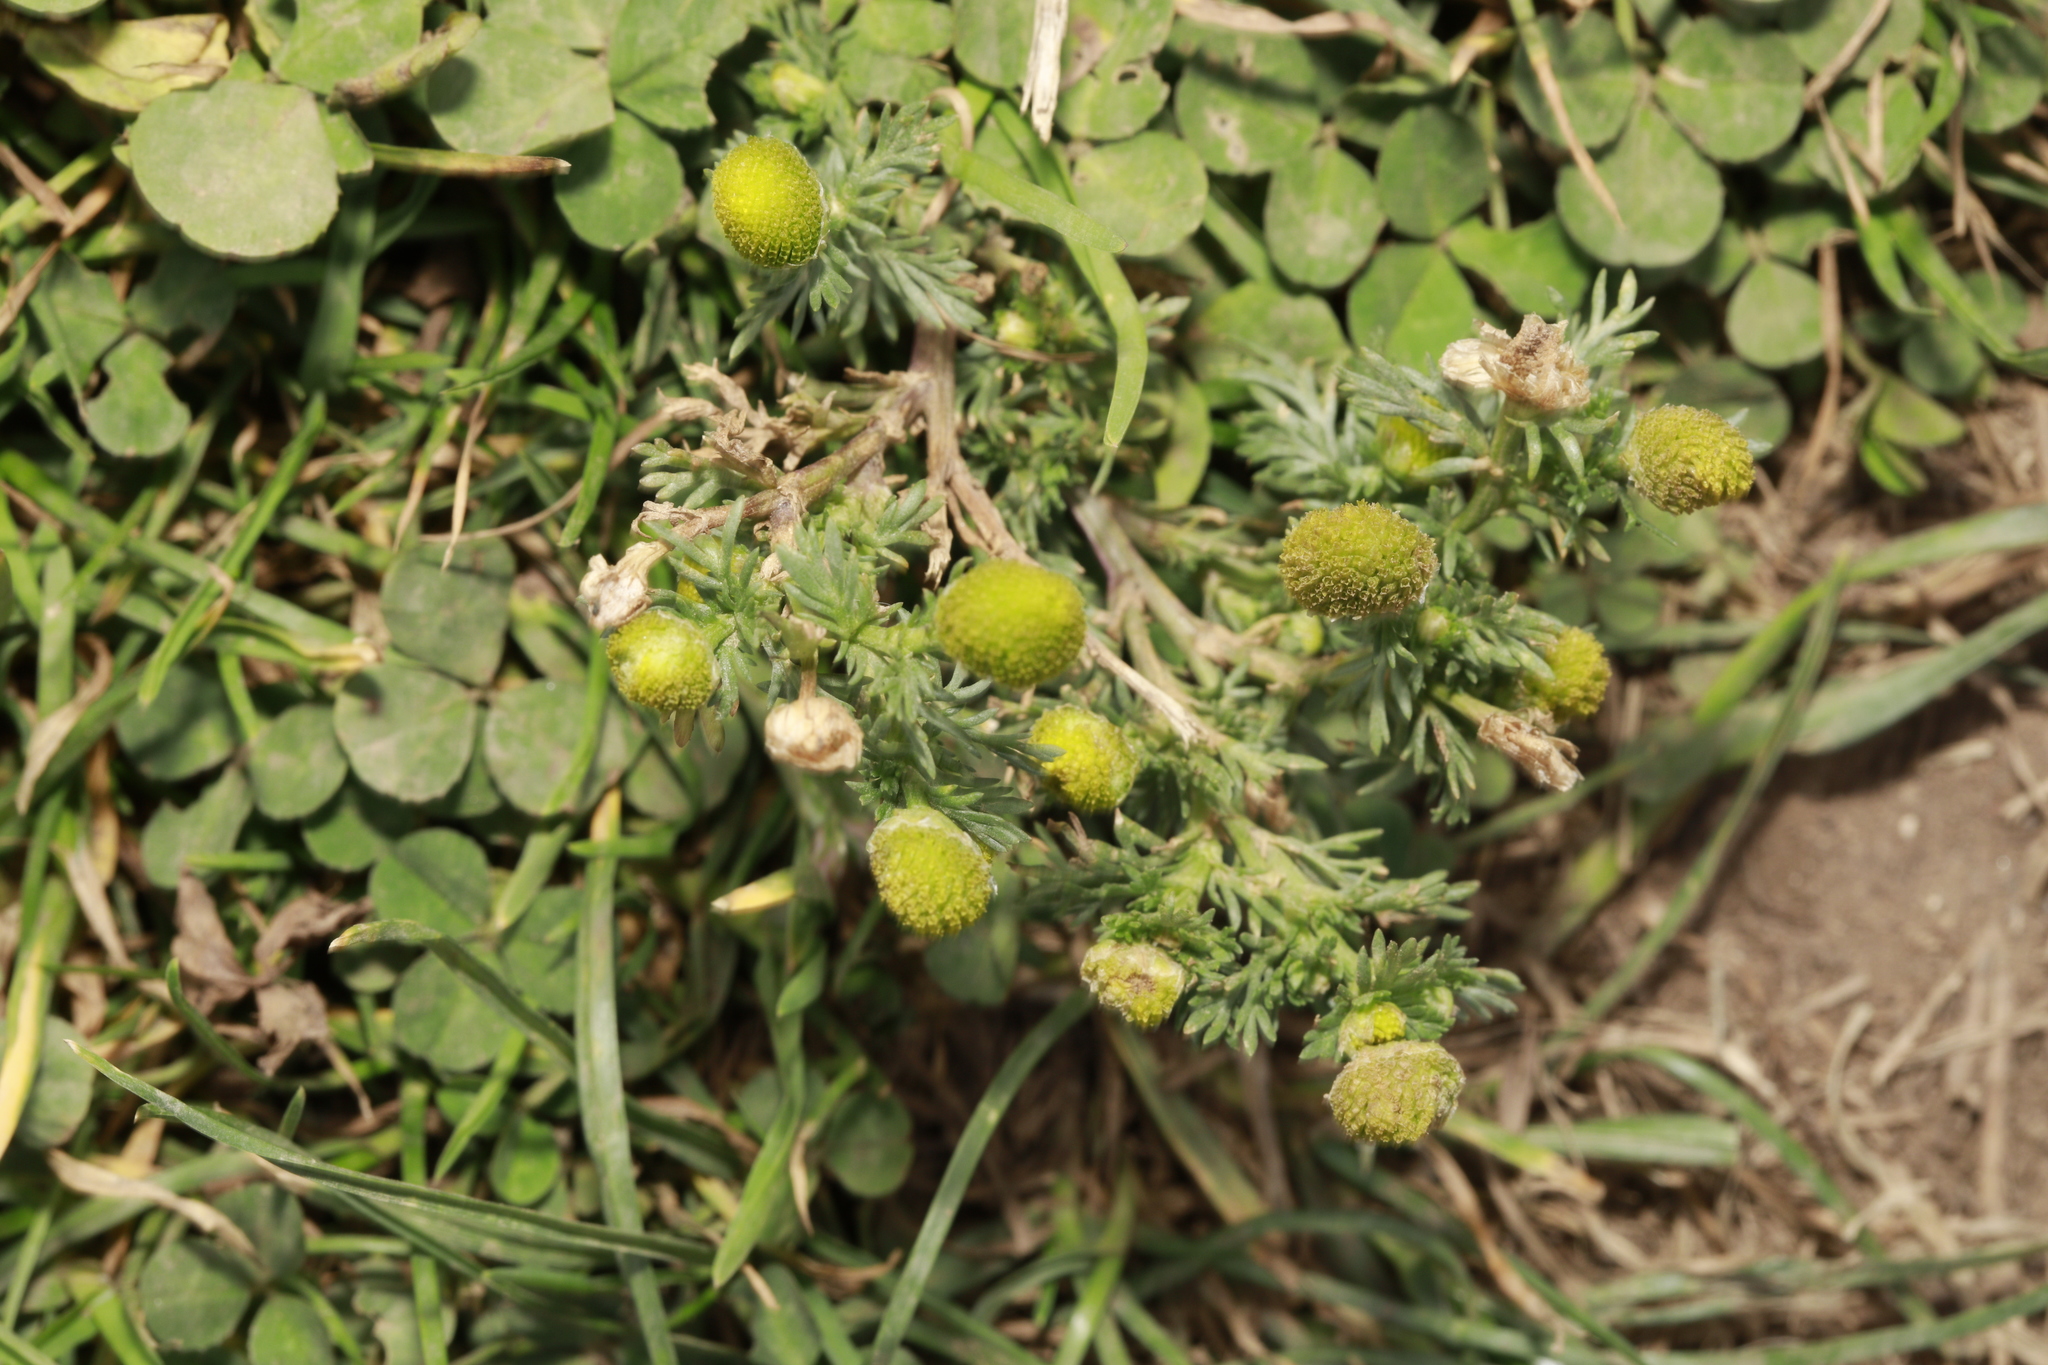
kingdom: Plantae
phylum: Tracheophyta
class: Magnoliopsida
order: Asterales
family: Asteraceae
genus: Matricaria
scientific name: Matricaria discoidea
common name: Disc mayweed
